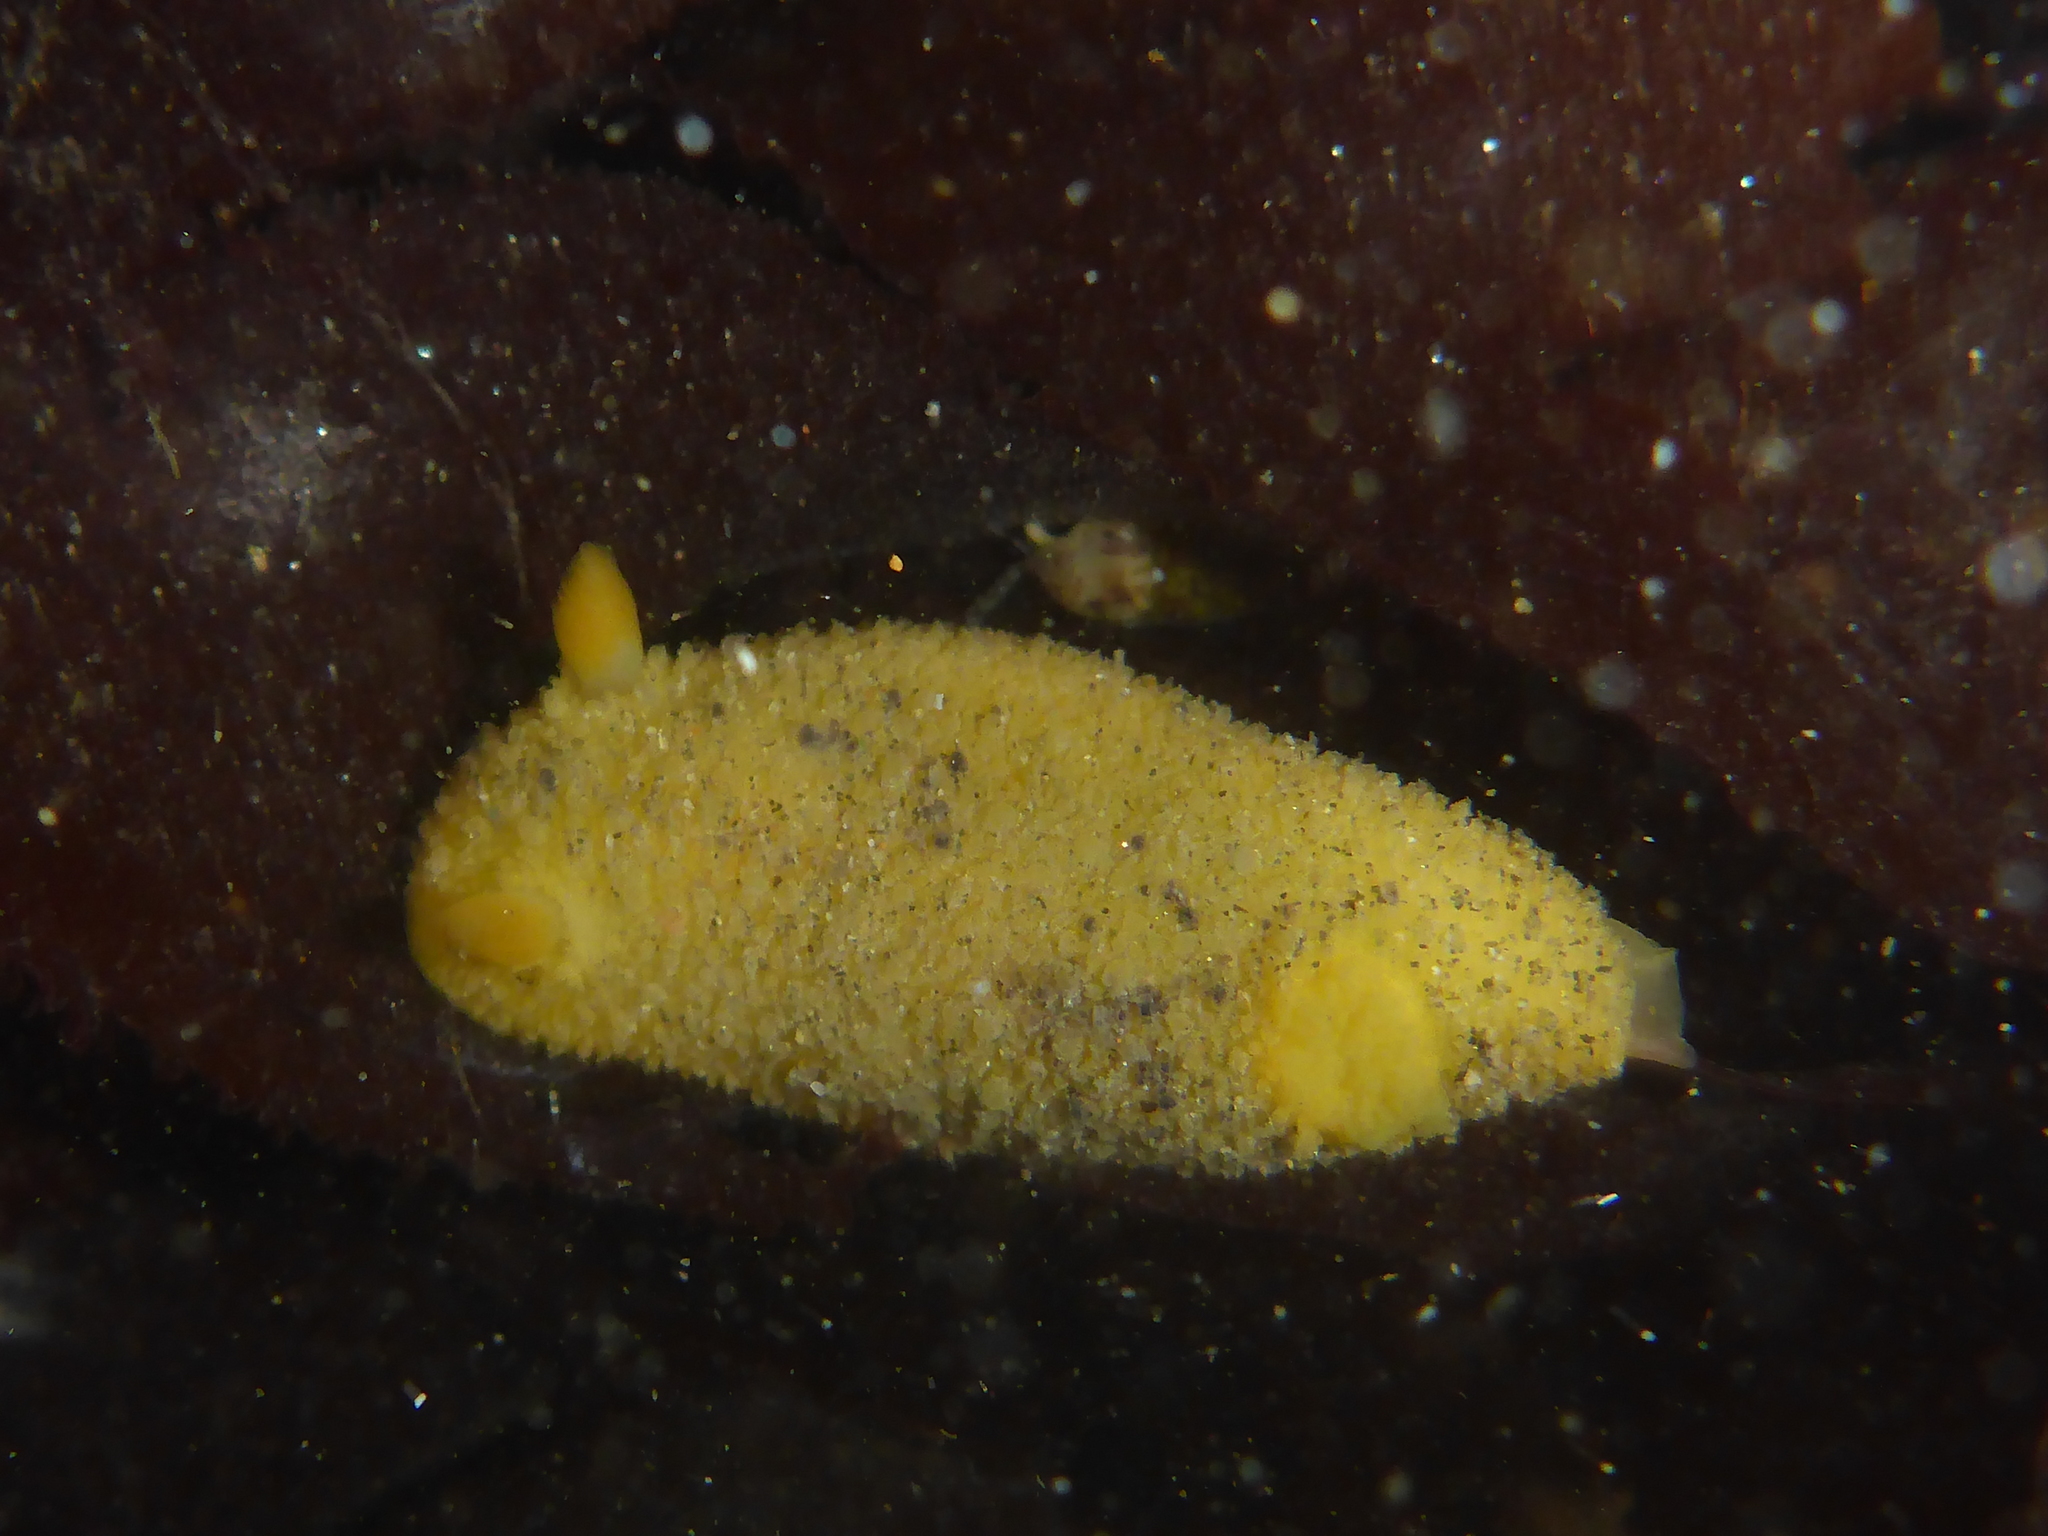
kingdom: Animalia
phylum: Mollusca
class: Gastropoda
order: Nudibranchia
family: Dorididae
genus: Doris
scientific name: Doris montereyensis
